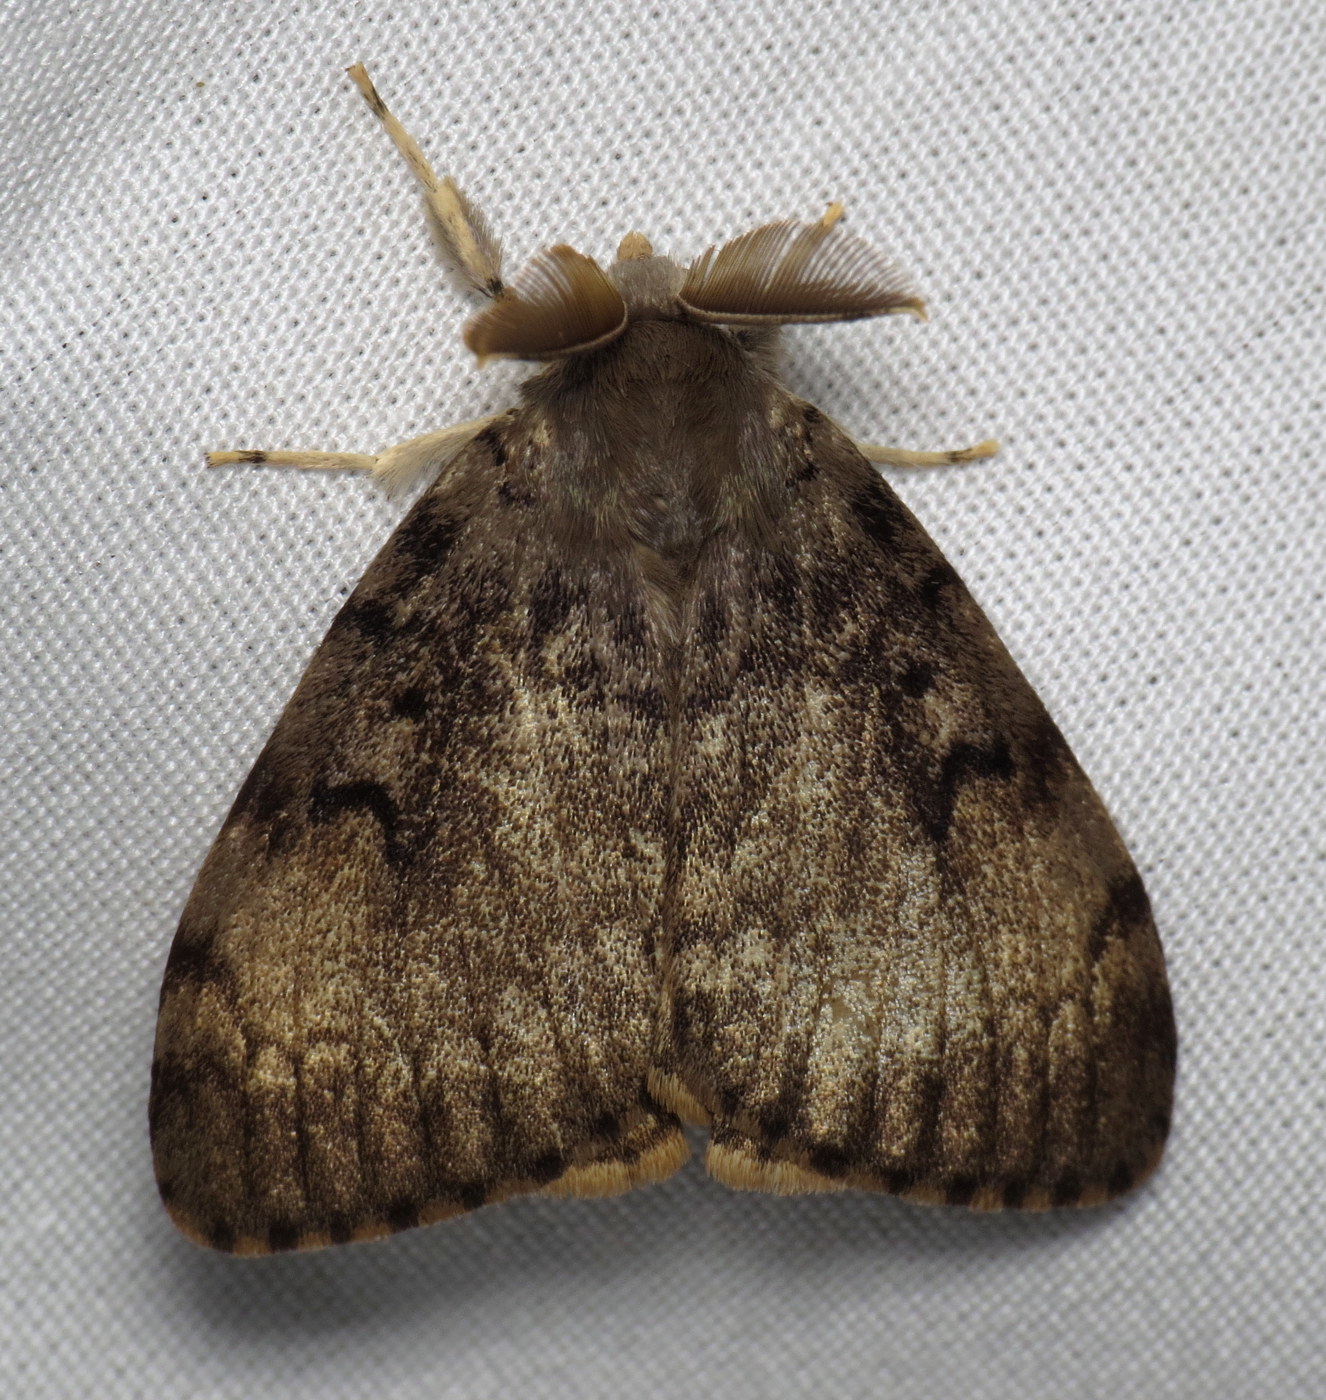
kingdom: Animalia
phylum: Arthropoda
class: Insecta
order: Lepidoptera
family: Erebidae
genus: Lymantria
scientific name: Lymantria dispar
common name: Gypsy moth
